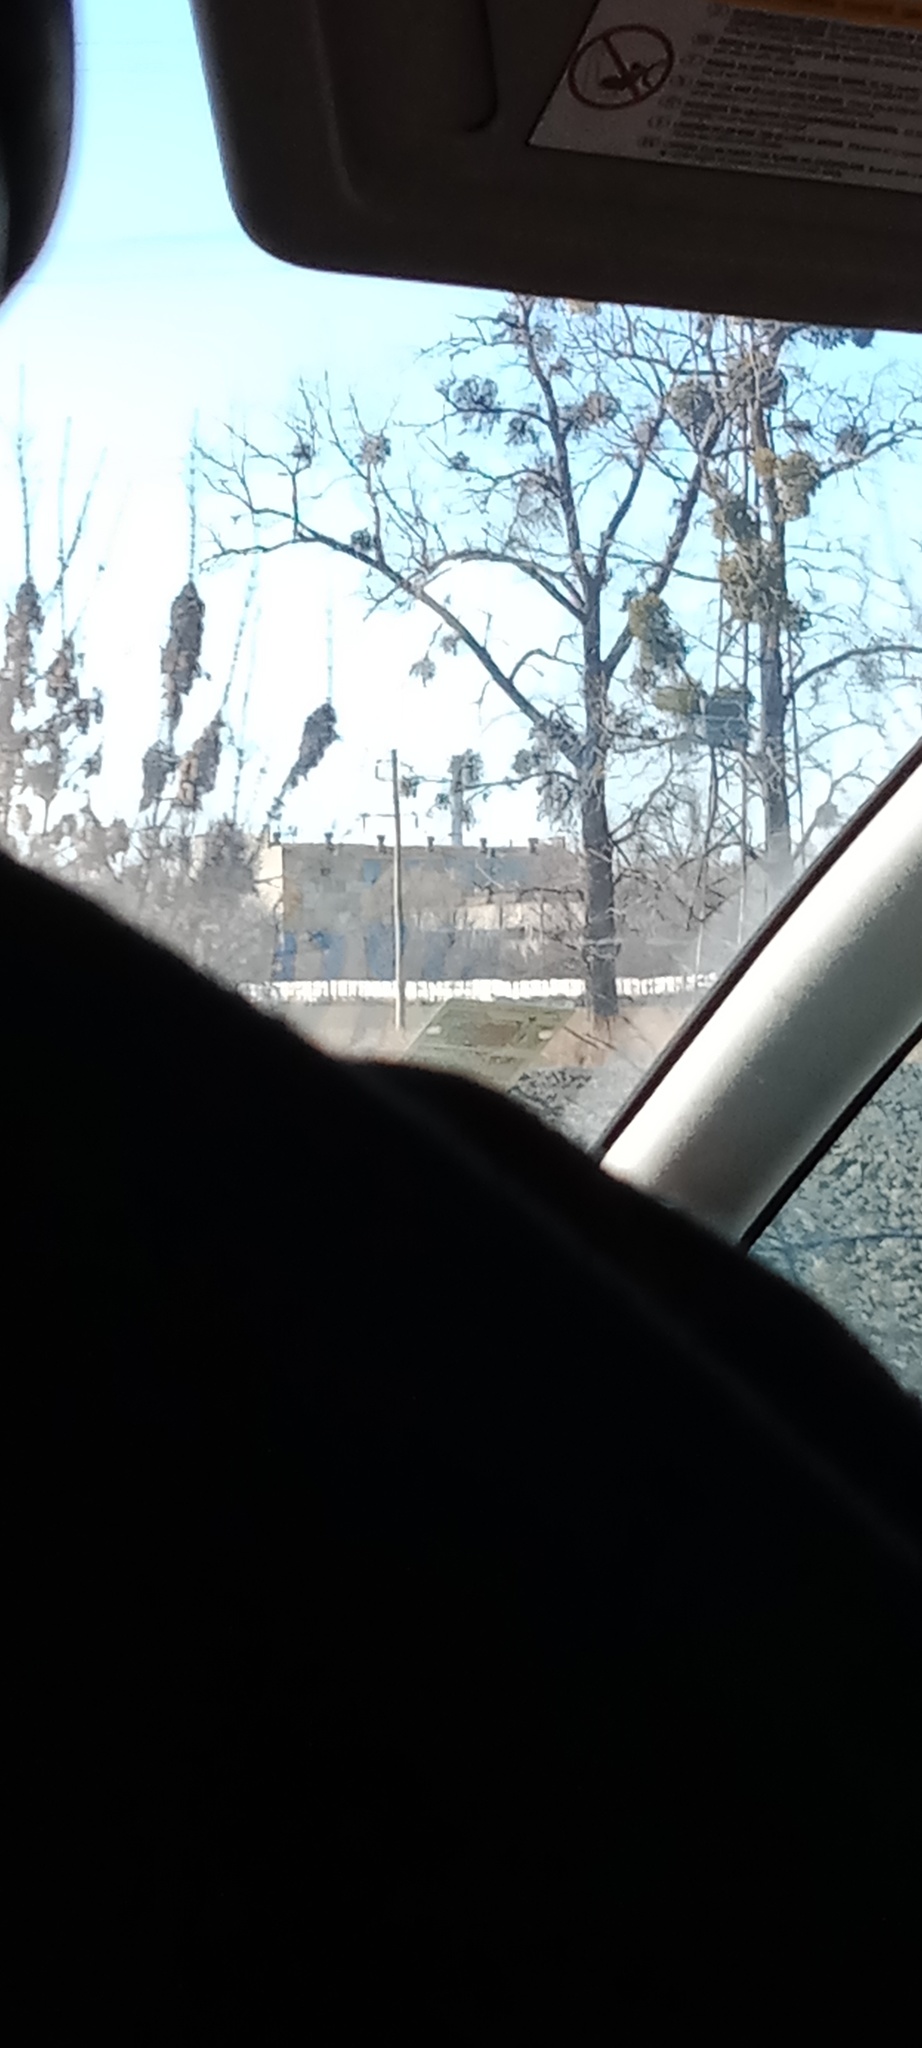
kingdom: Plantae
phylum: Tracheophyta
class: Magnoliopsida
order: Santalales
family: Viscaceae
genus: Viscum
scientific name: Viscum album
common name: Mistletoe
